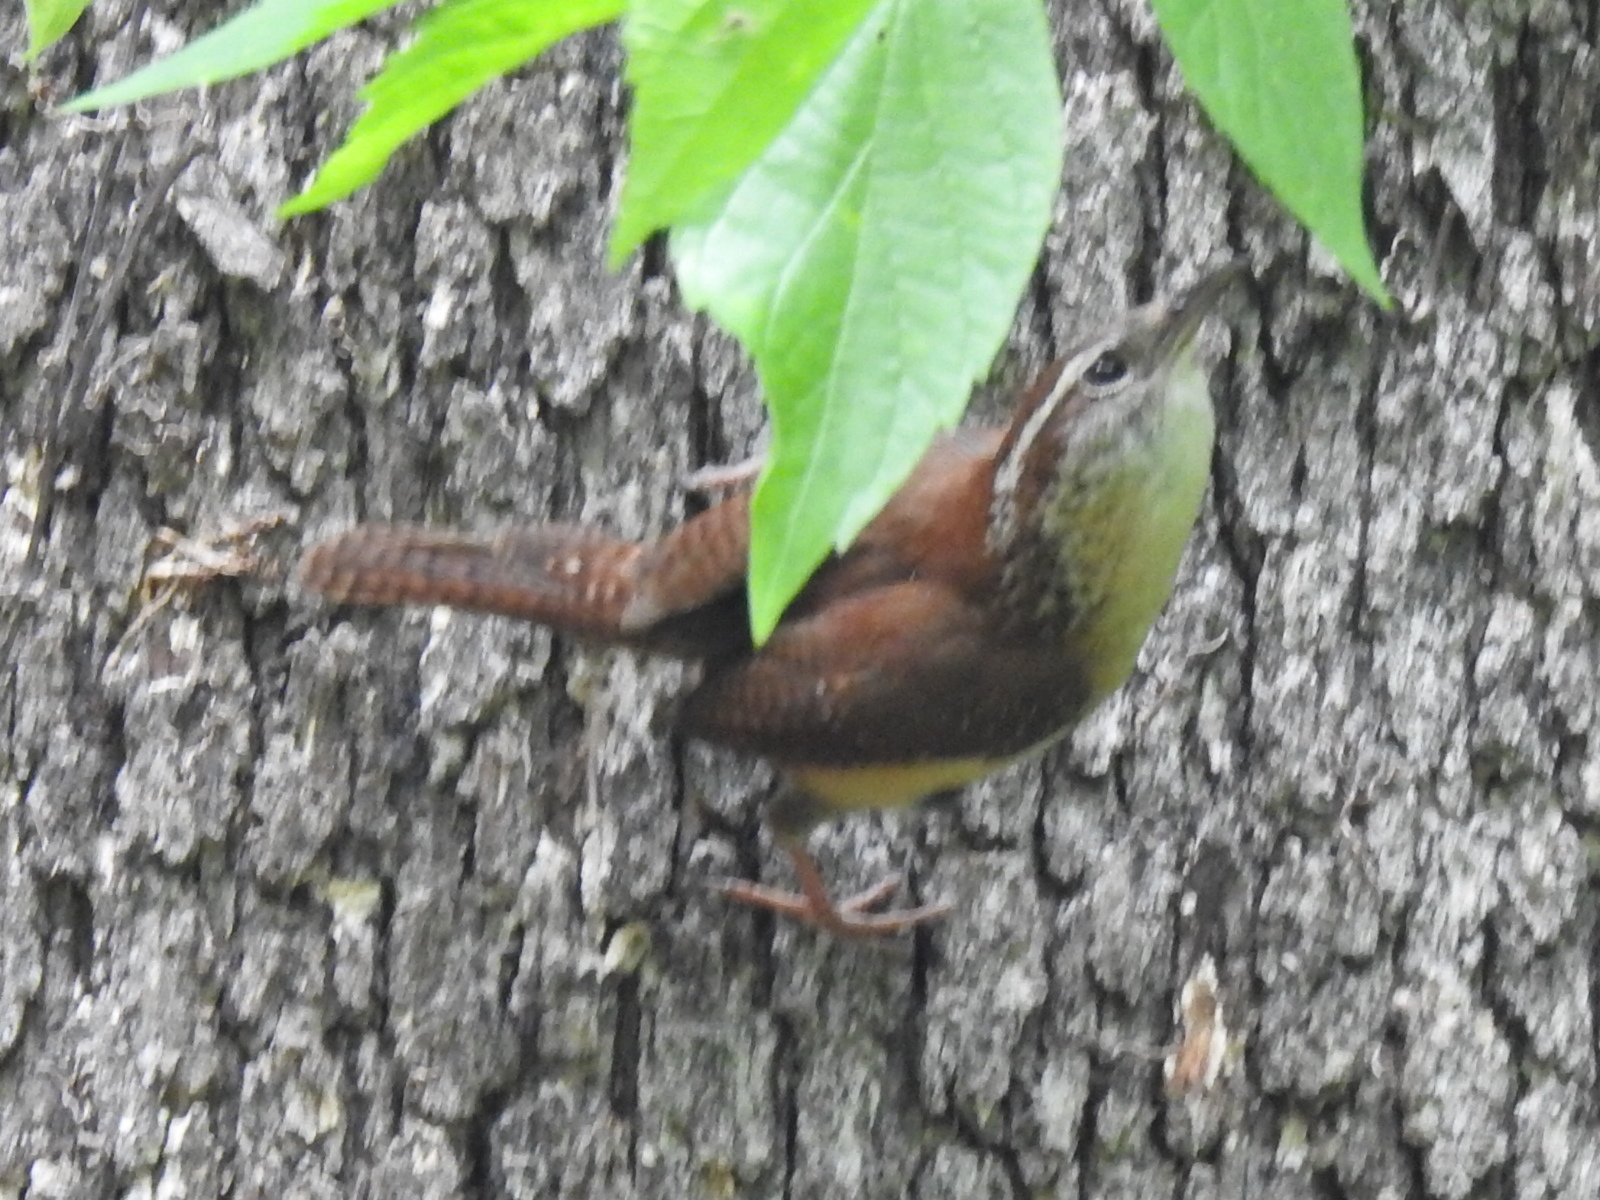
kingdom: Animalia
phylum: Chordata
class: Aves
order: Passeriformes
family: Troglodytidae
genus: Thryothorus
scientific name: Thryothorus ludovicianus
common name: Carolina wren
